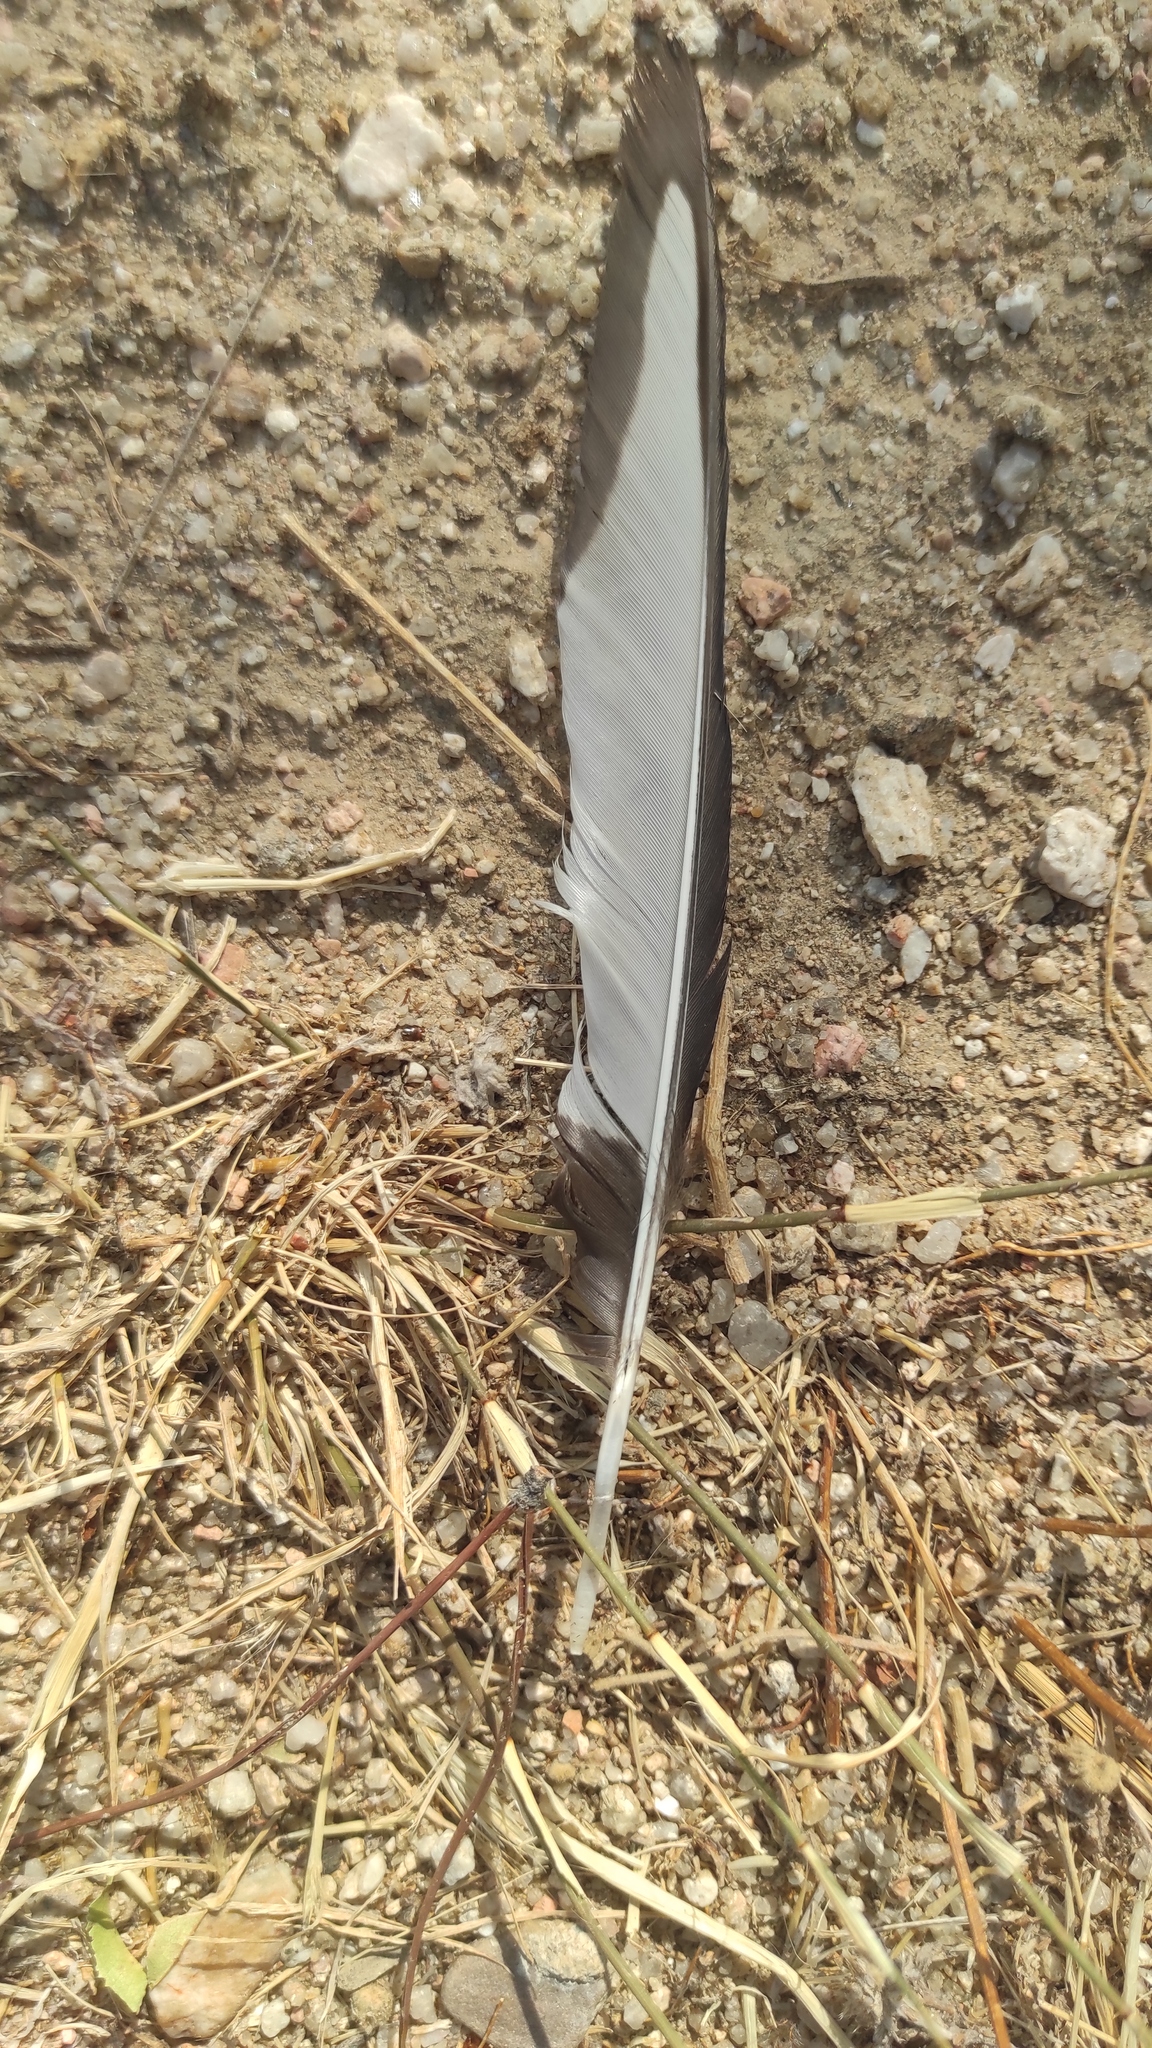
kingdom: Animalia
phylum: Chordata
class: Aves
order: Passeriformes
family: Corvidae
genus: Pica
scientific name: Pica pica
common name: Eurasian magpie
